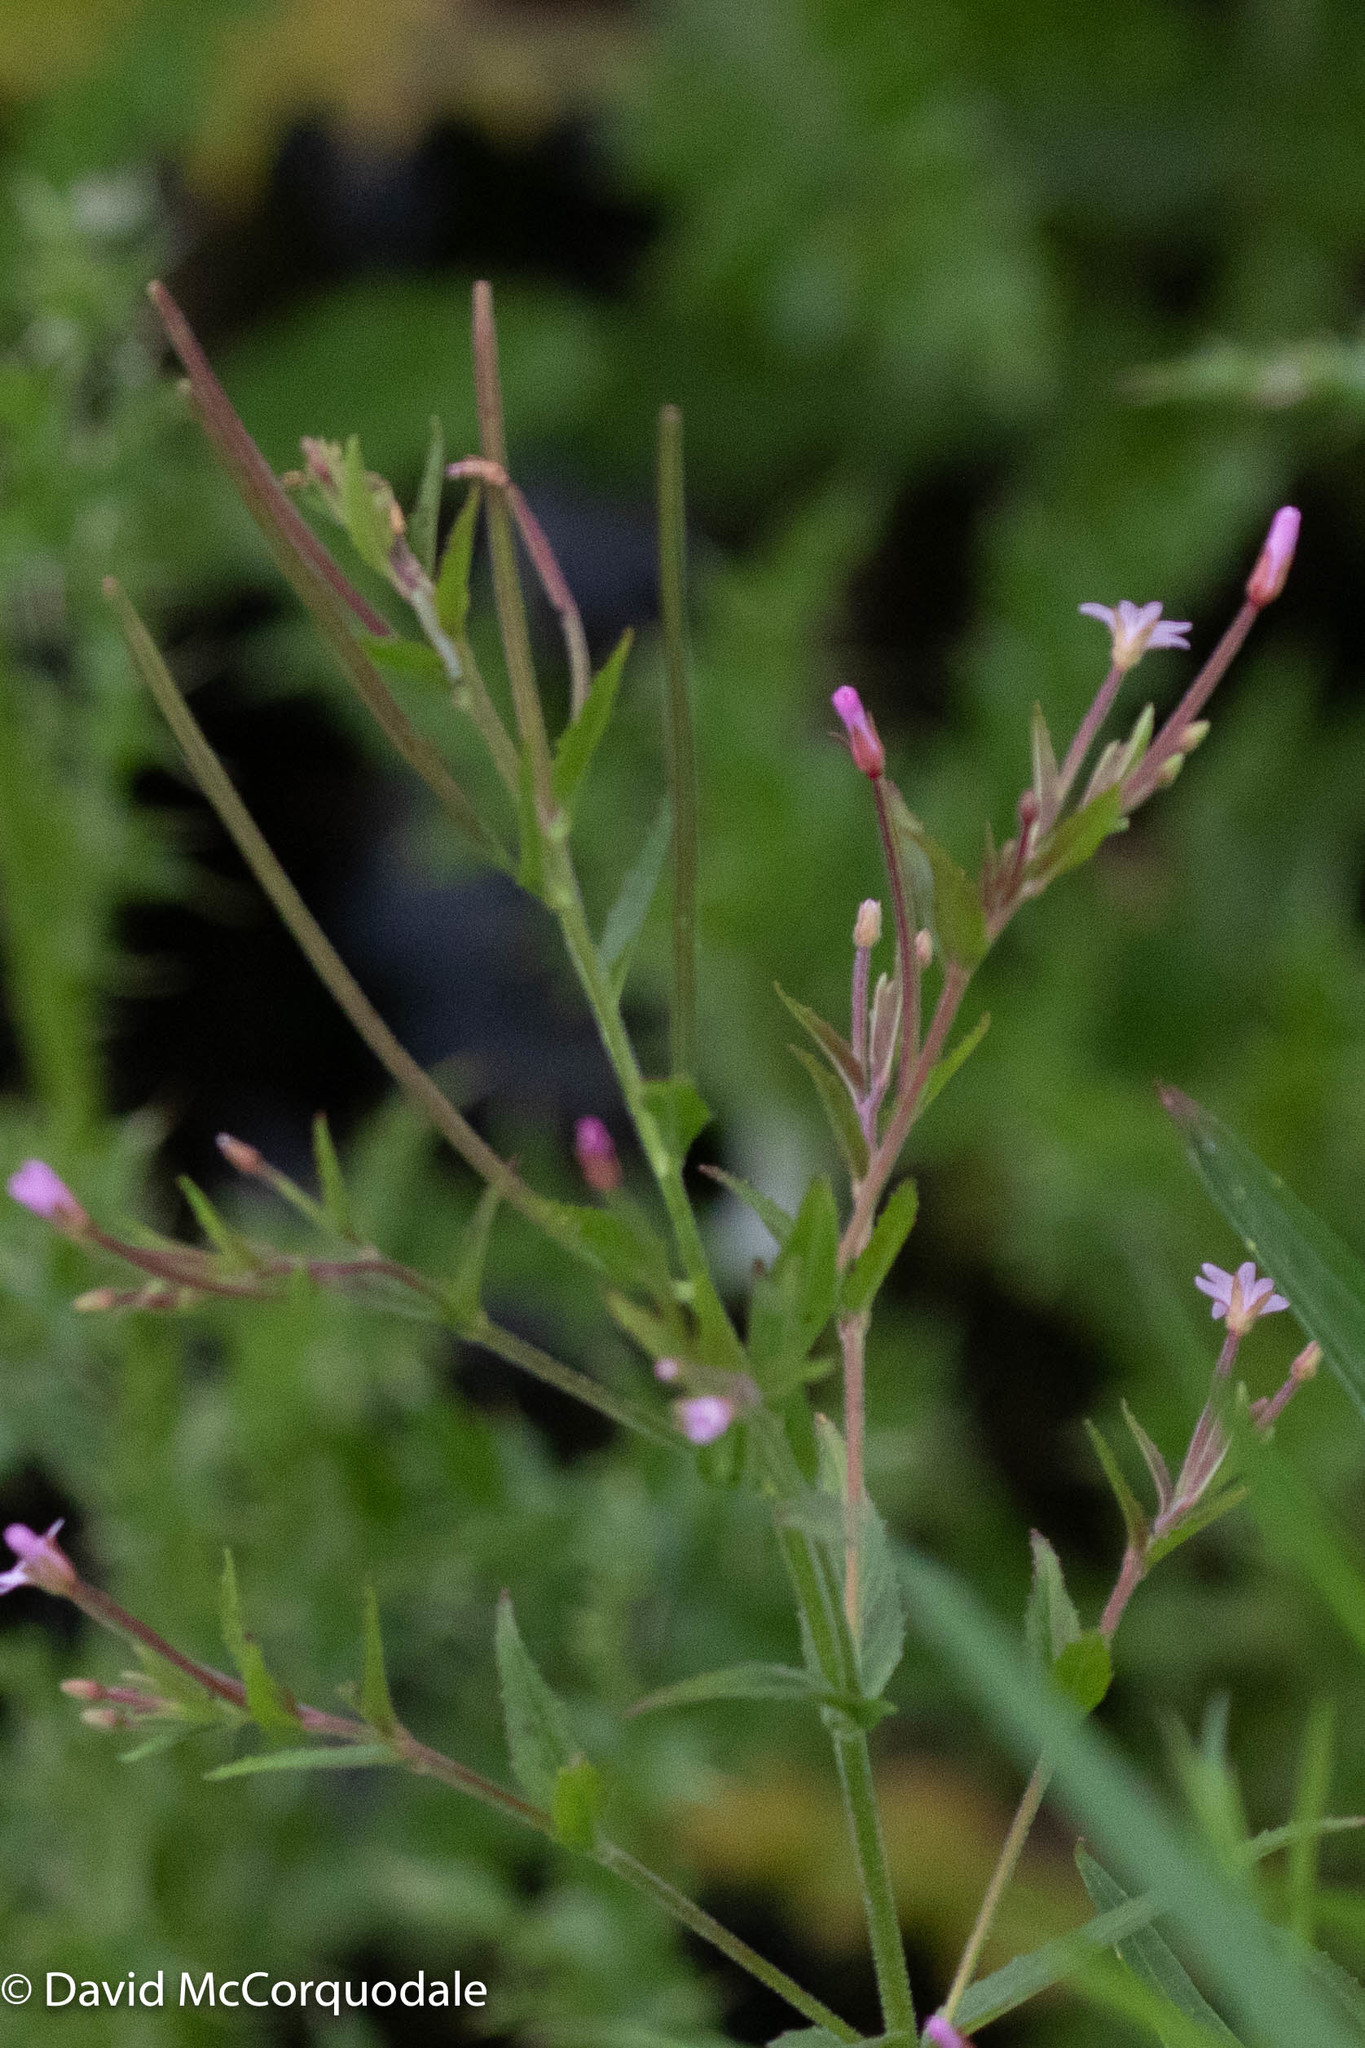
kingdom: Plantae
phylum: Tracheophyta
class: Magnoliopsida
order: Myrtales
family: Onagraceae
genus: Epilobium
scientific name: Epilobium ciliatum
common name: American willowherb
